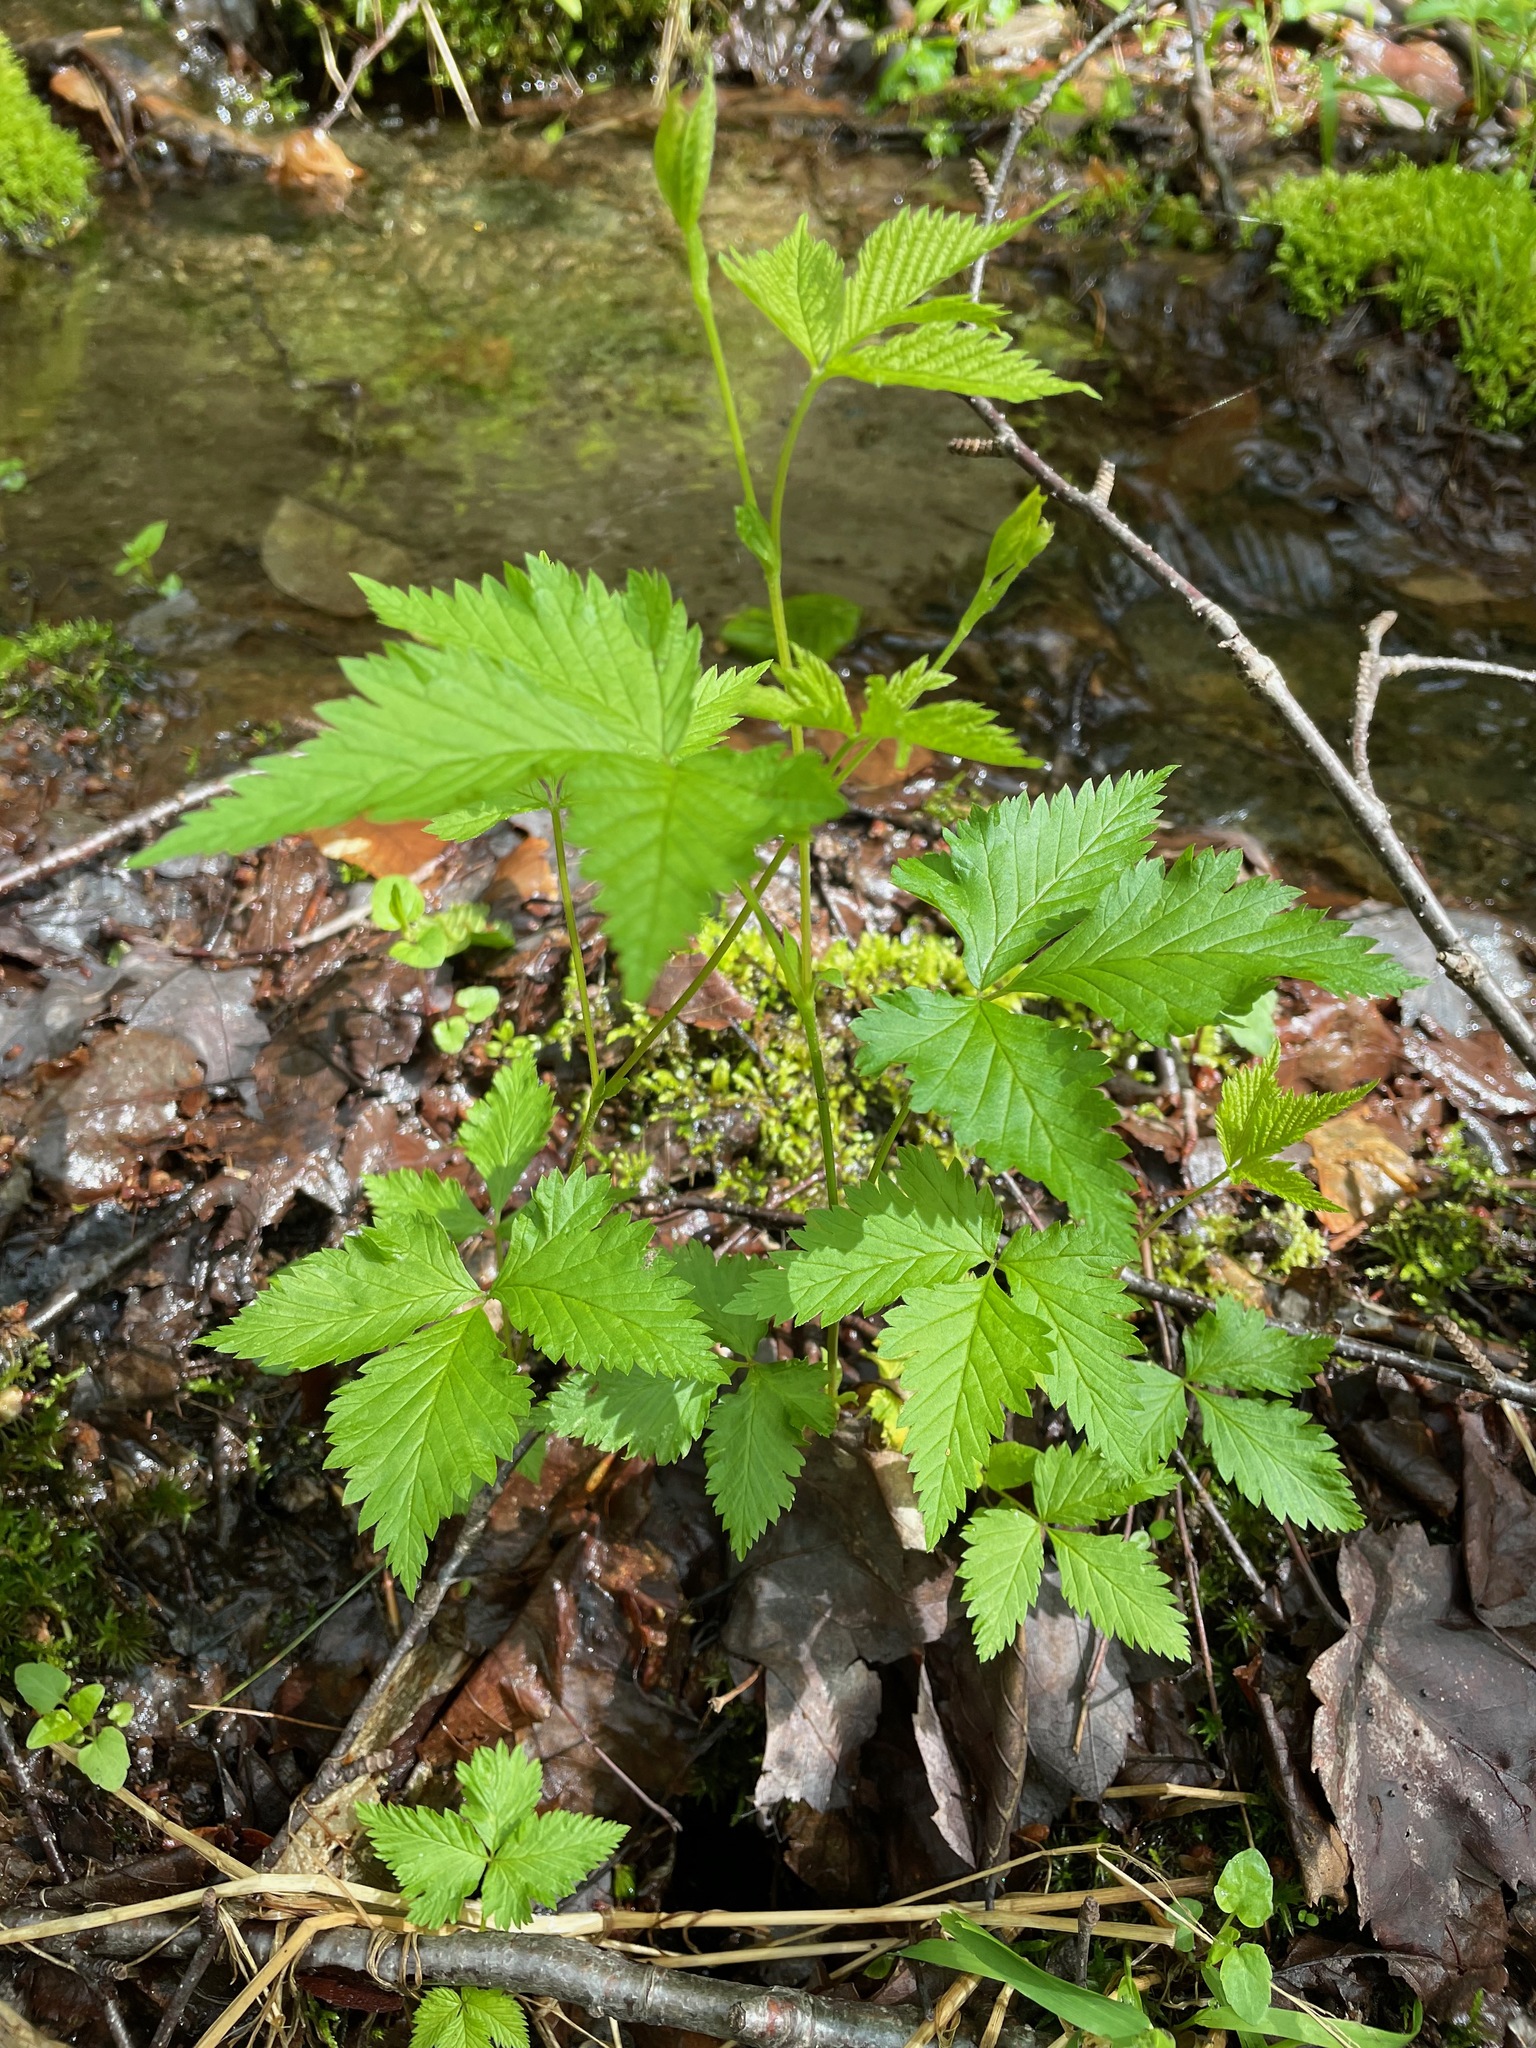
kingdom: Plantae
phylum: Tracheophyta
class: Magnoliopsida
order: Rosales
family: Rosaceae
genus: Rubus
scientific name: Rubus pubescens
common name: Dwarf raspberry
